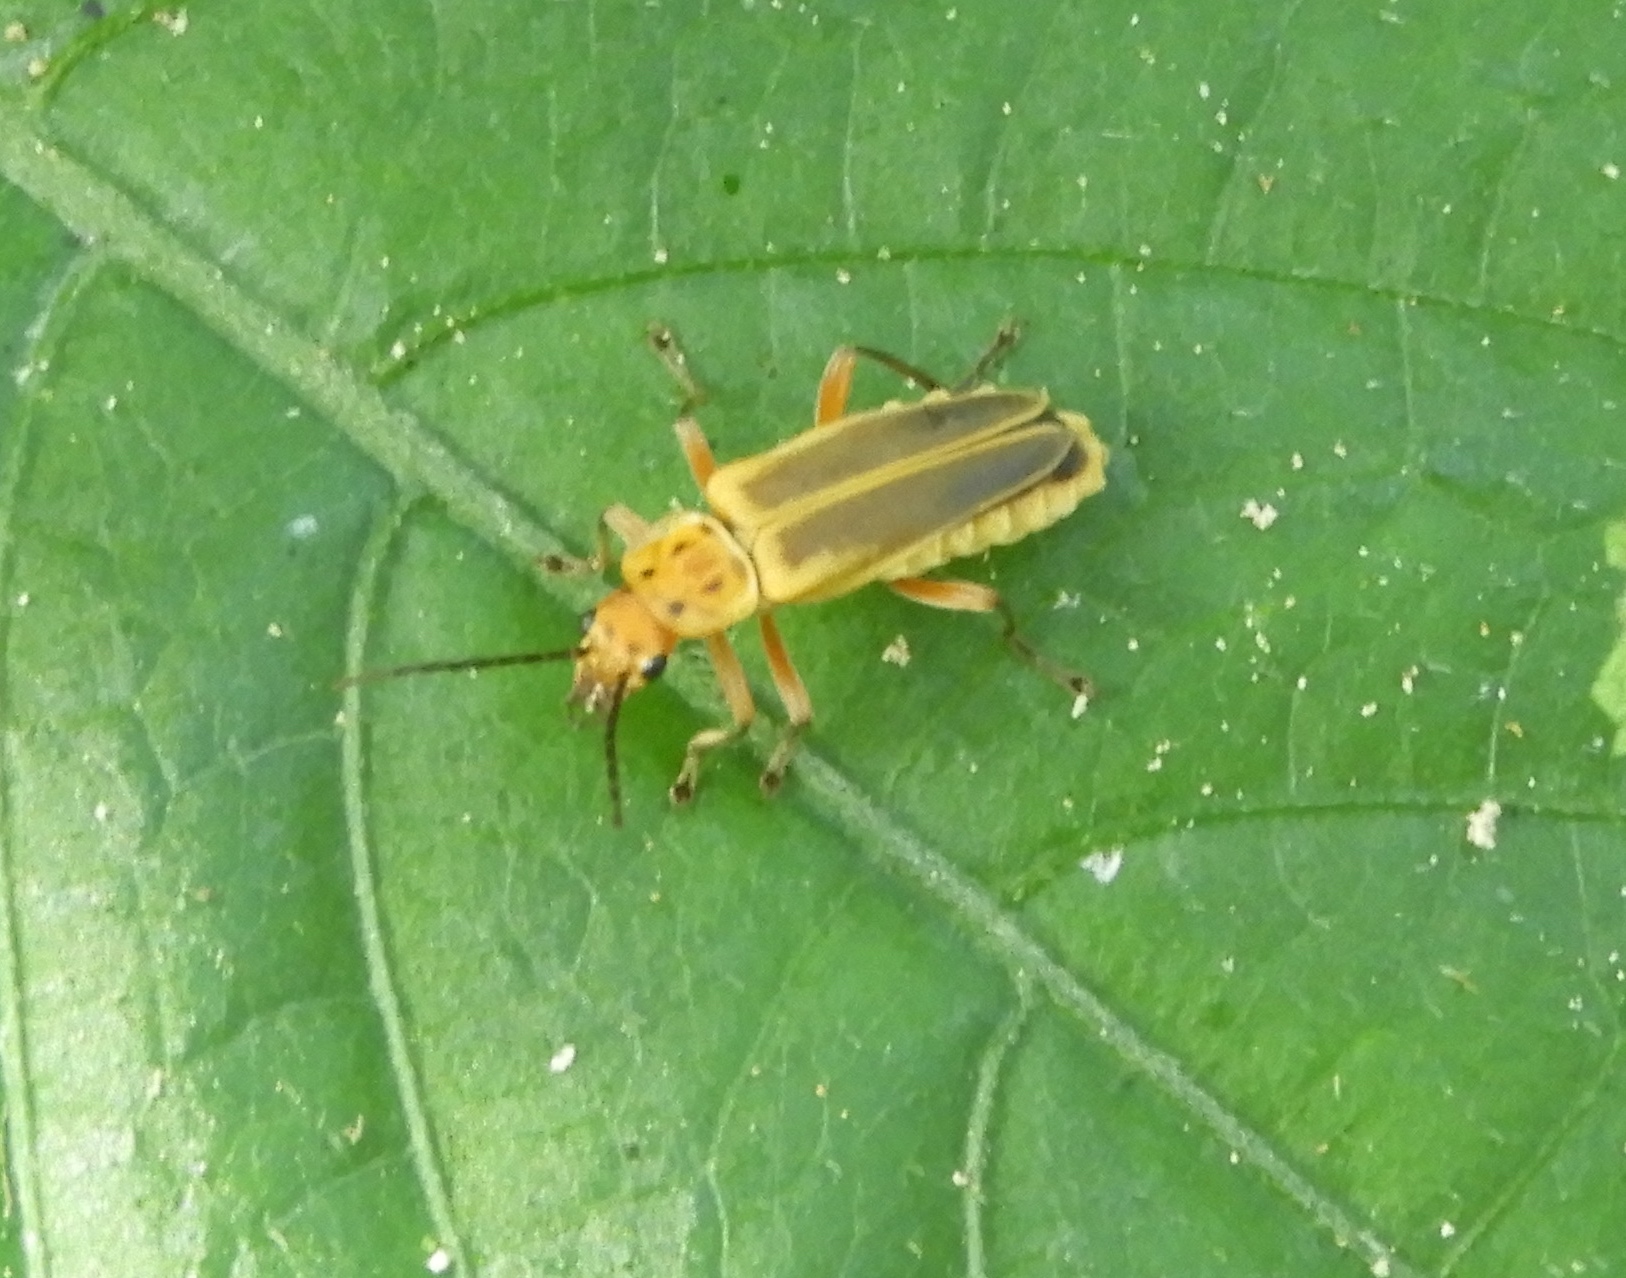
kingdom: Animalia
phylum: Arthropoda
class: Insecta
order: Coleoptera
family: Cantharidae
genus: Chauliognathus
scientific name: Chauliognathus
